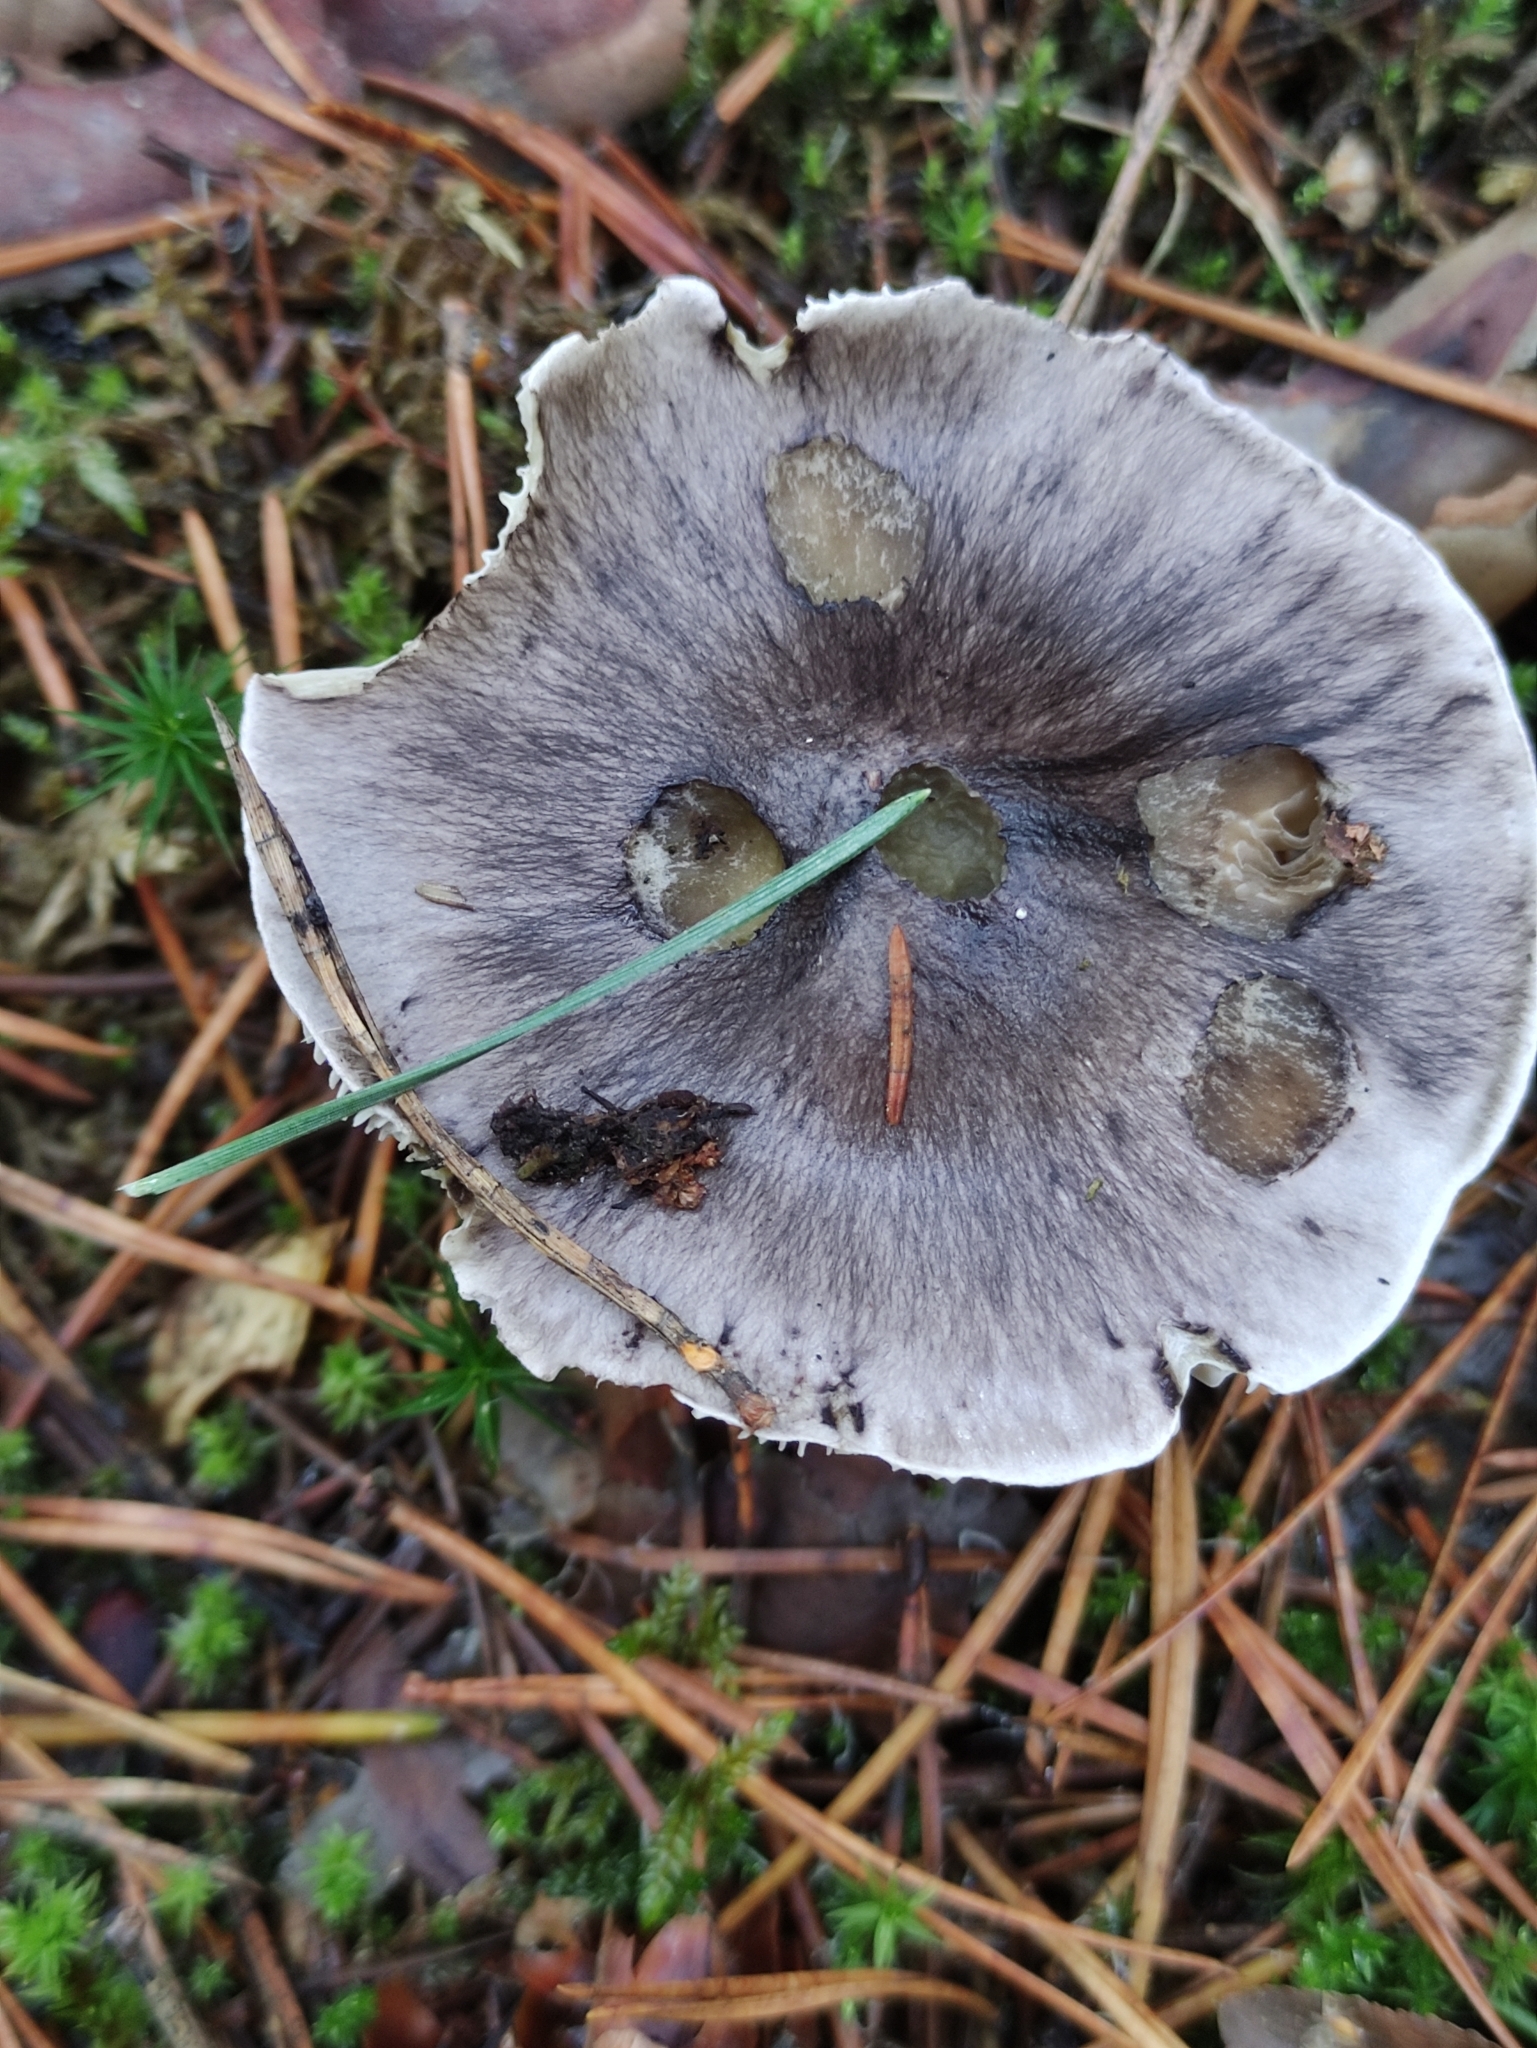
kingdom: Fungi
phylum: Basidiomycota
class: Agaricomycetes
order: Agaricales
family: Tricholomataceae
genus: Tricholoma
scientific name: Tricholoma portentosum
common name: Coalman
